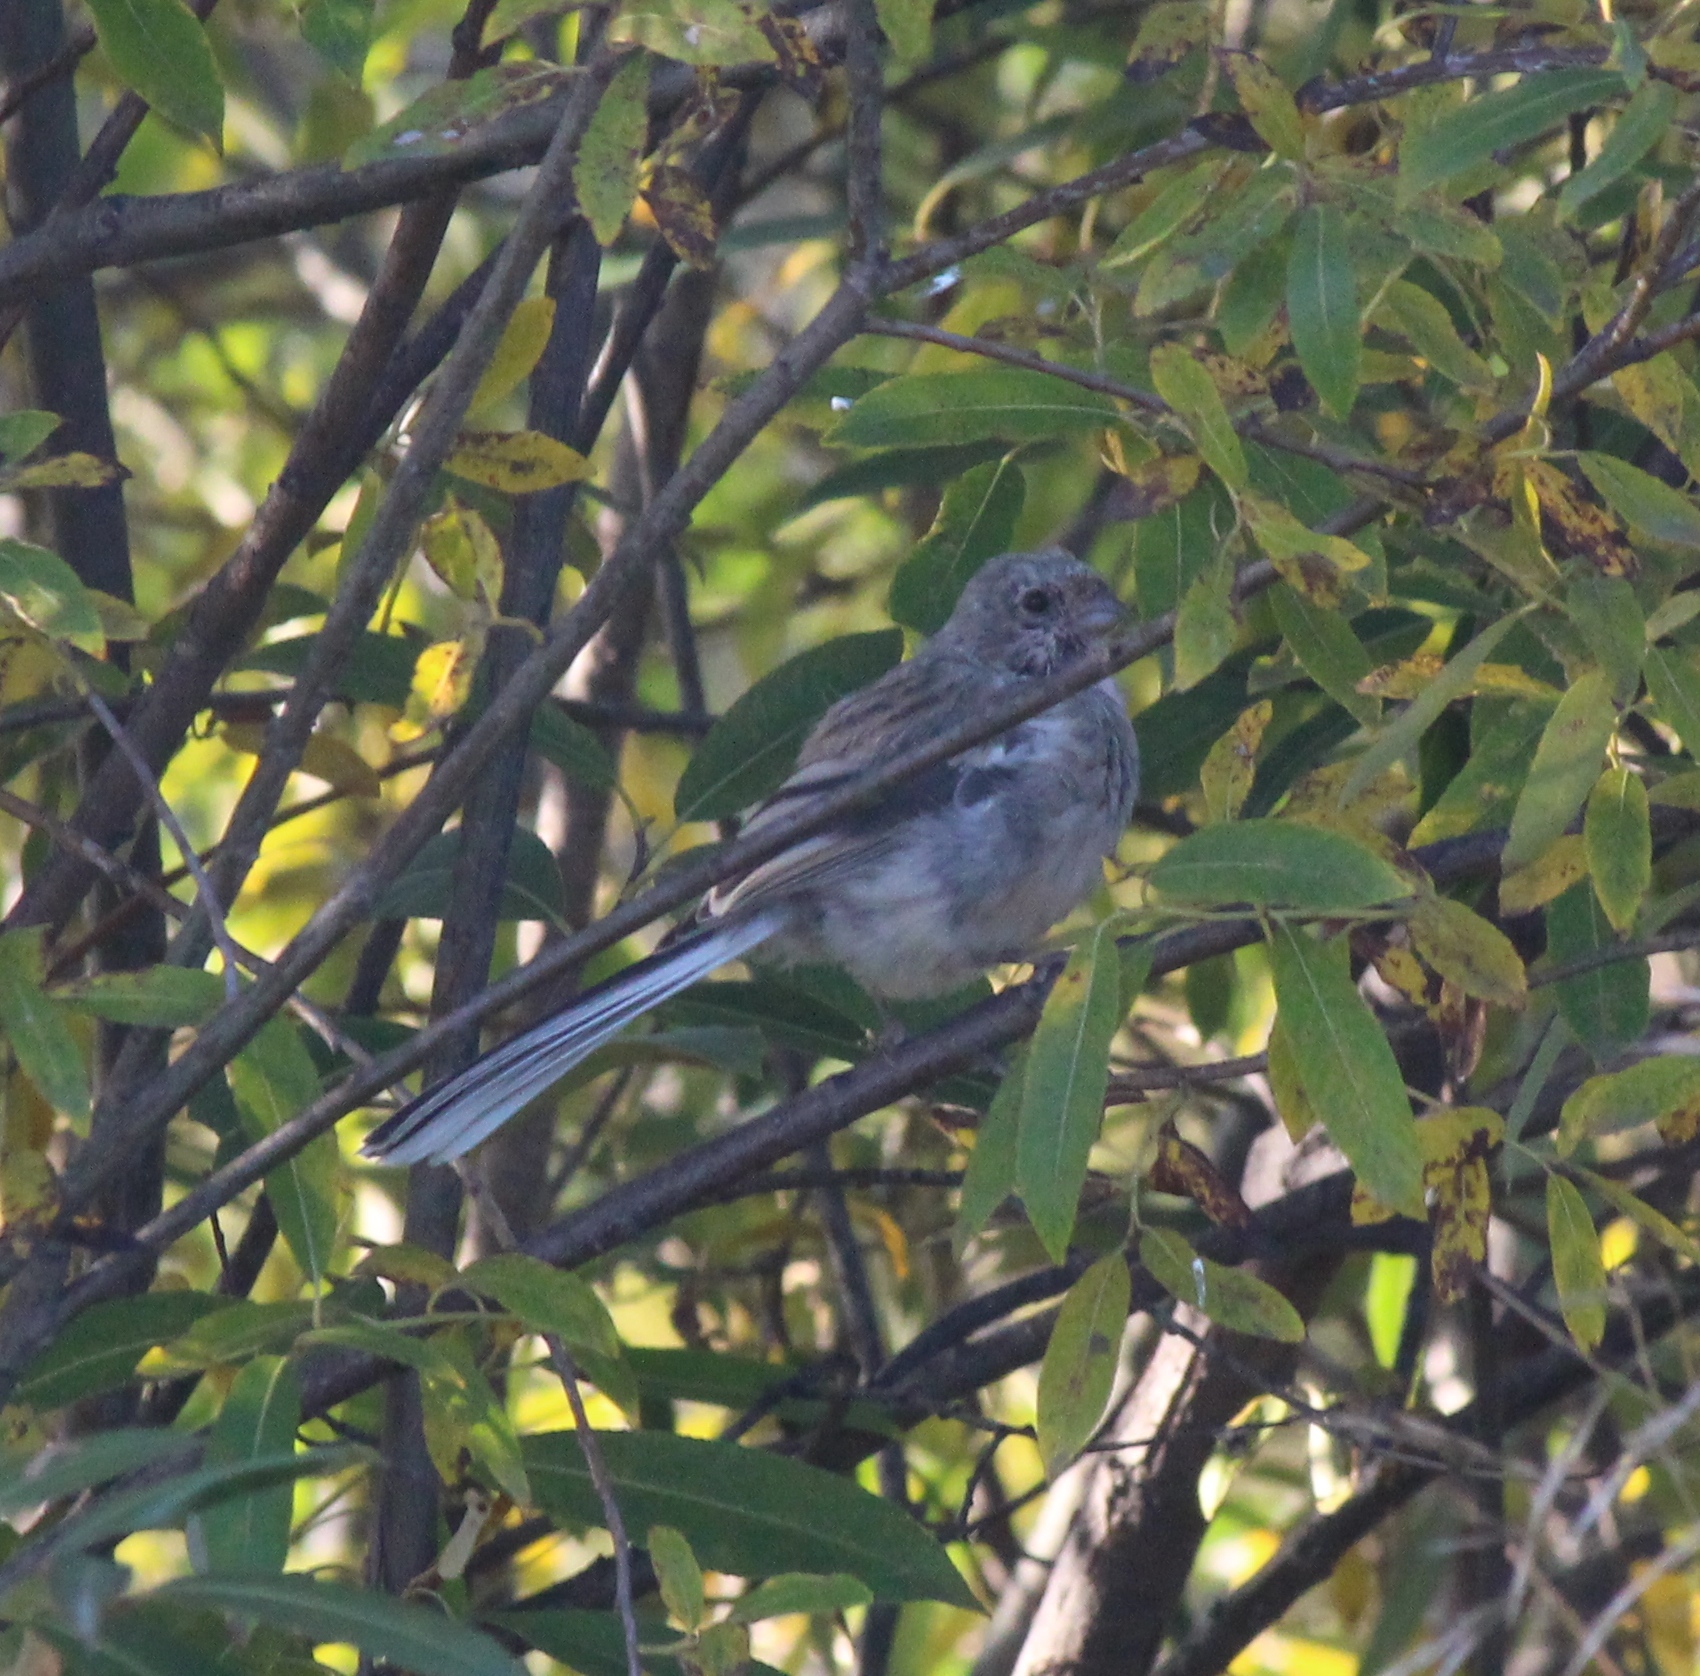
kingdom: Animalia
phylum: Chordata
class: Aves
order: Passeriformes
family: Fringillidae
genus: Carpodacus
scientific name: Carpodacus sibiricus
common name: Long-tailed rosefinch
